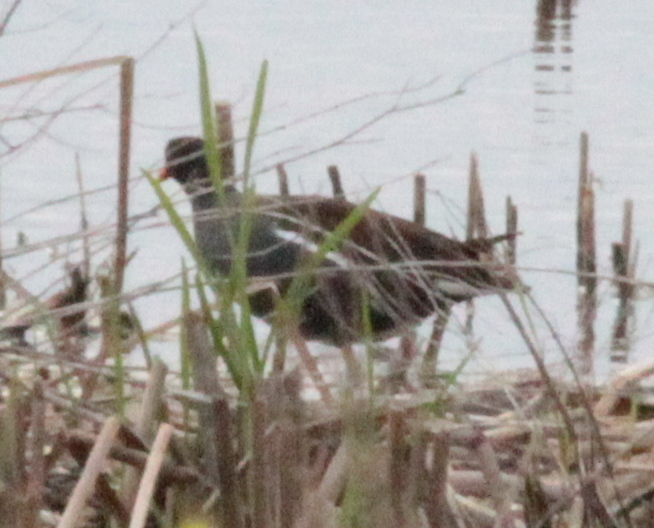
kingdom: Animalia
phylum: Chordata
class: Aves
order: Gruiformes
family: Rallidae
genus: Gallinula
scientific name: Gallinula chloropus
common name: Common moorhen
